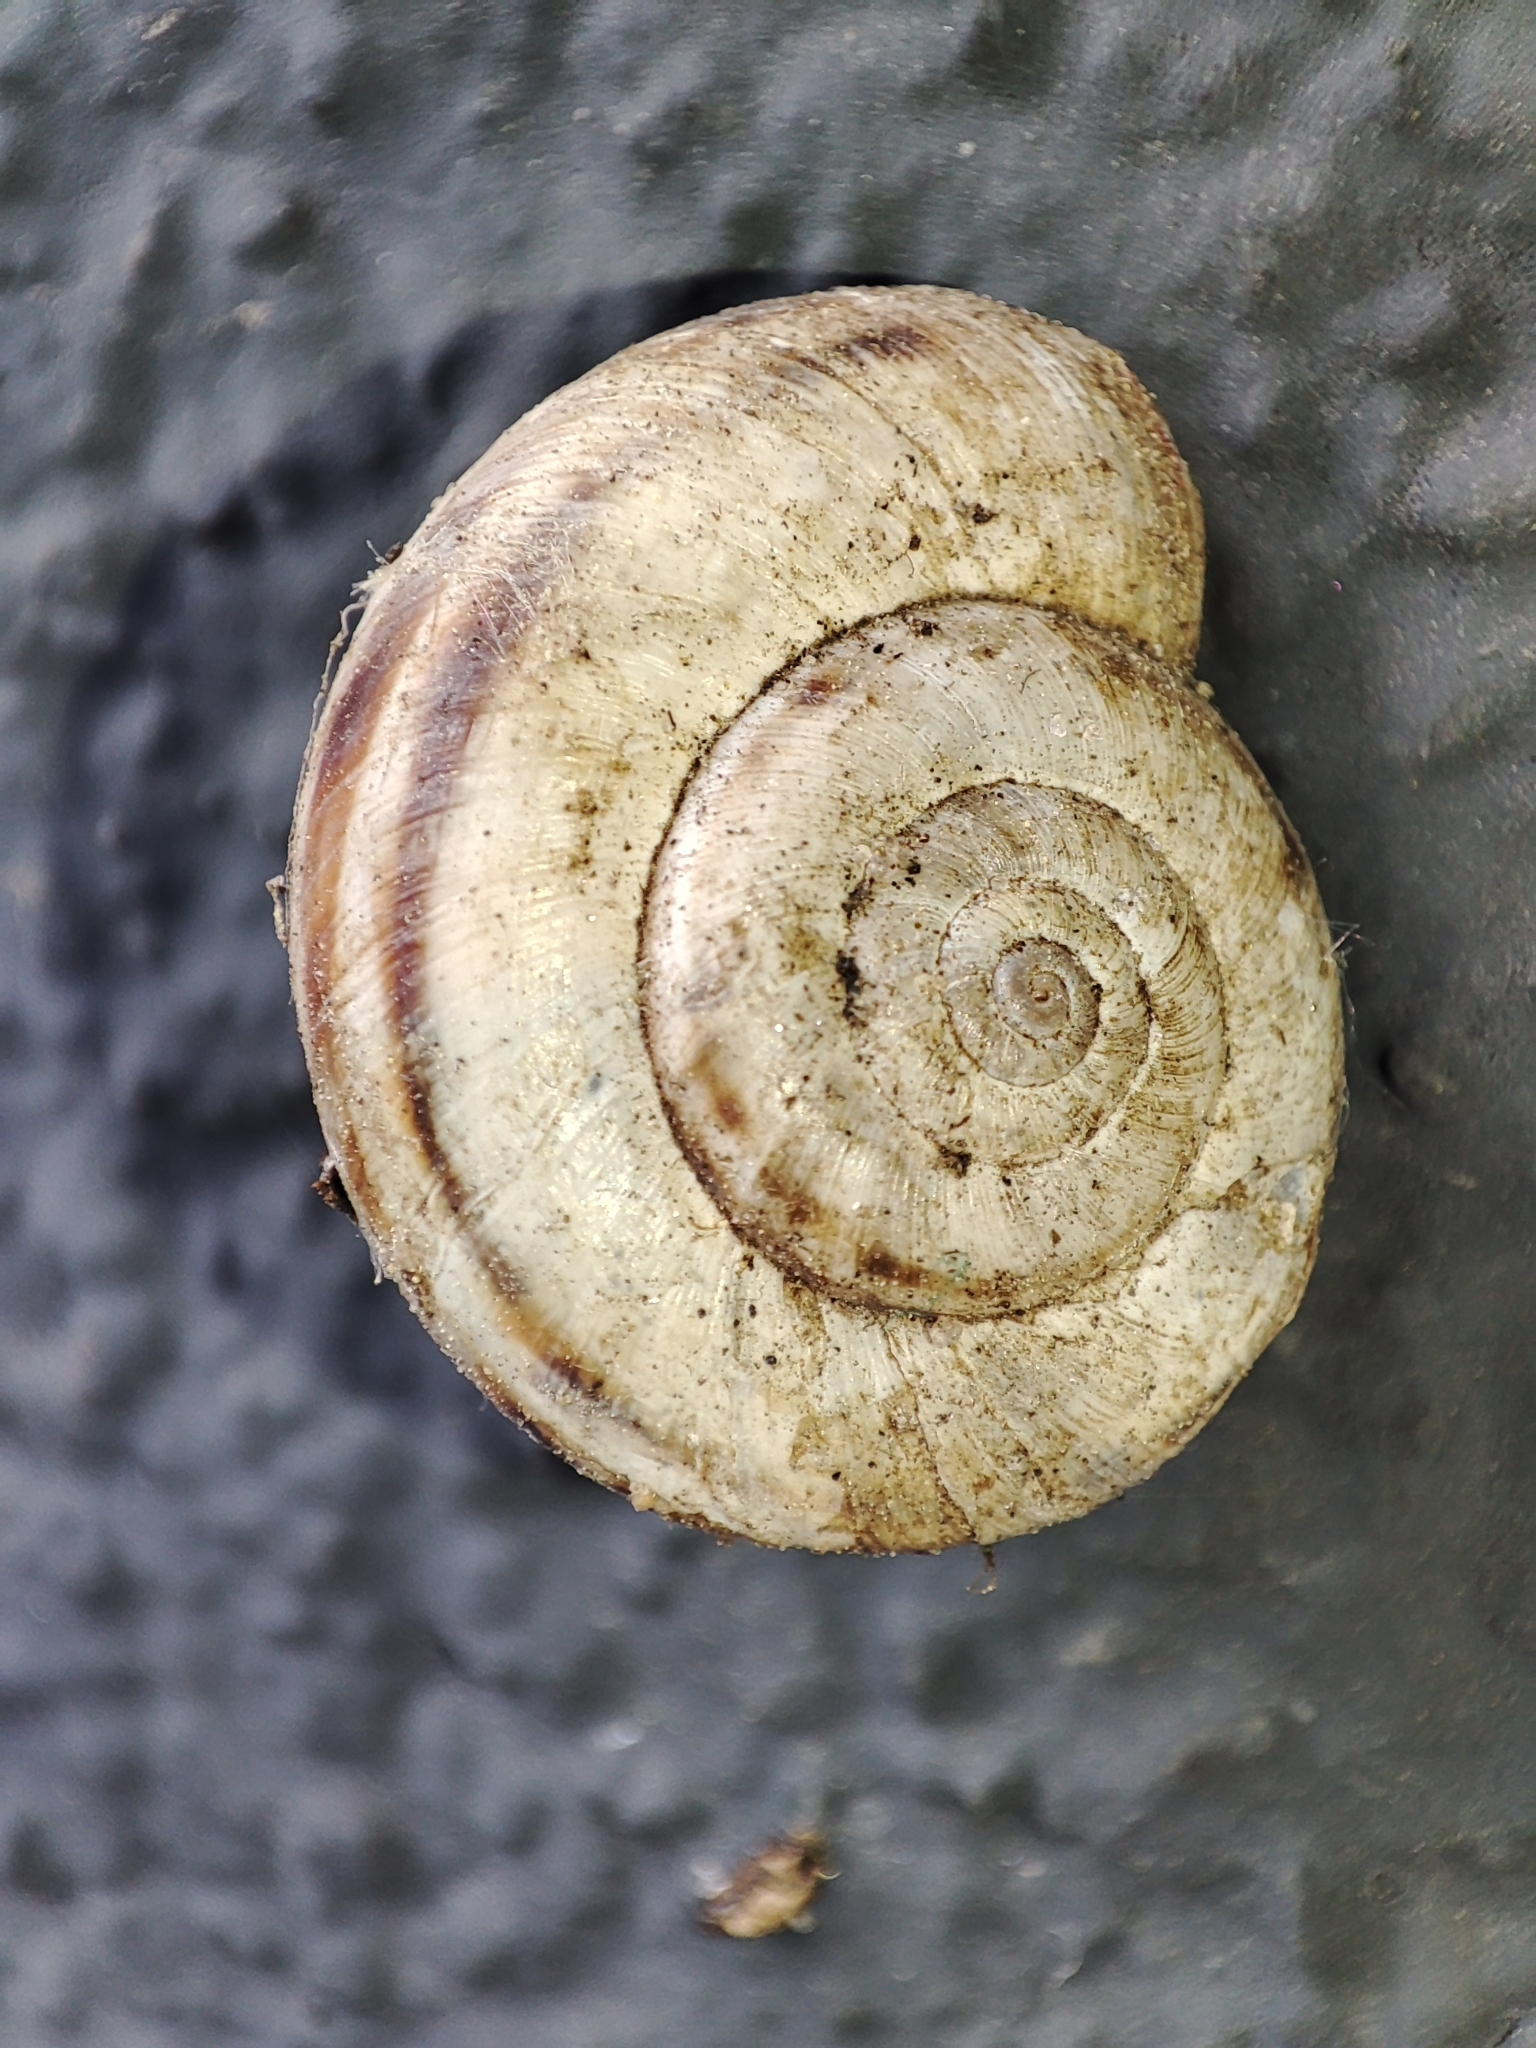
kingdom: Animalia
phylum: Mollusca
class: Gastropoda
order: Stylommatophora
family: Geomitridae
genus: Xerolenta
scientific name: Xerolenta obvia
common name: White heath snail
